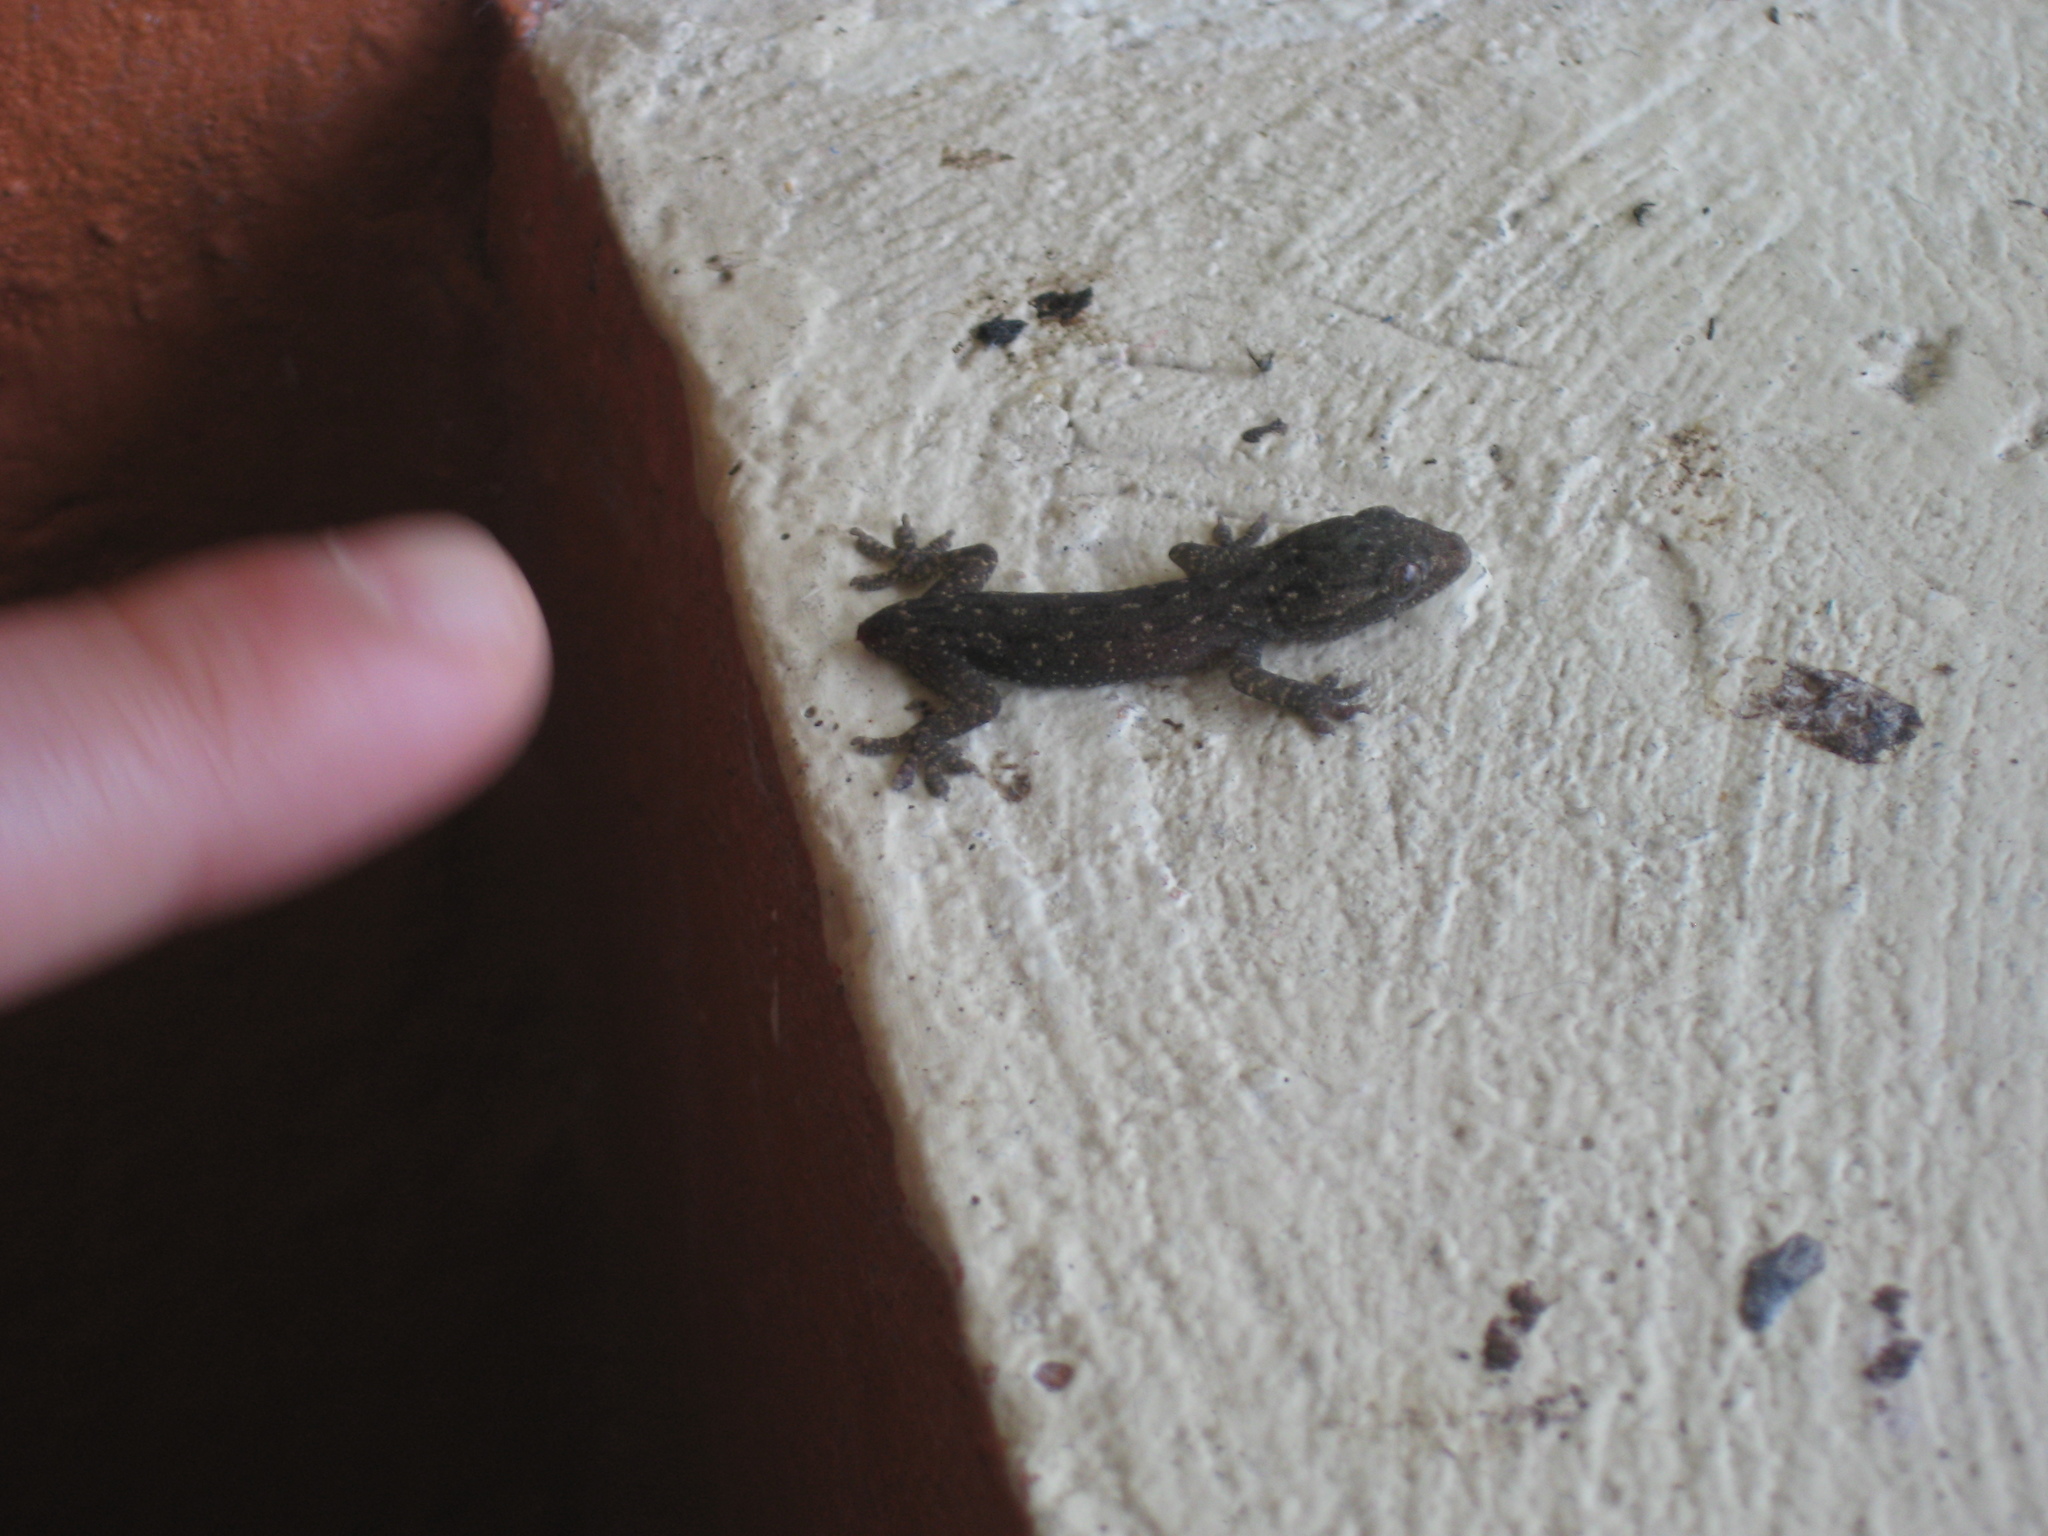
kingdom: Animalia
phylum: Chordata
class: Squamata
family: Gekkonidae
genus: Hemidactylus
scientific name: Hemidactylus frenatus
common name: Common house gecko
